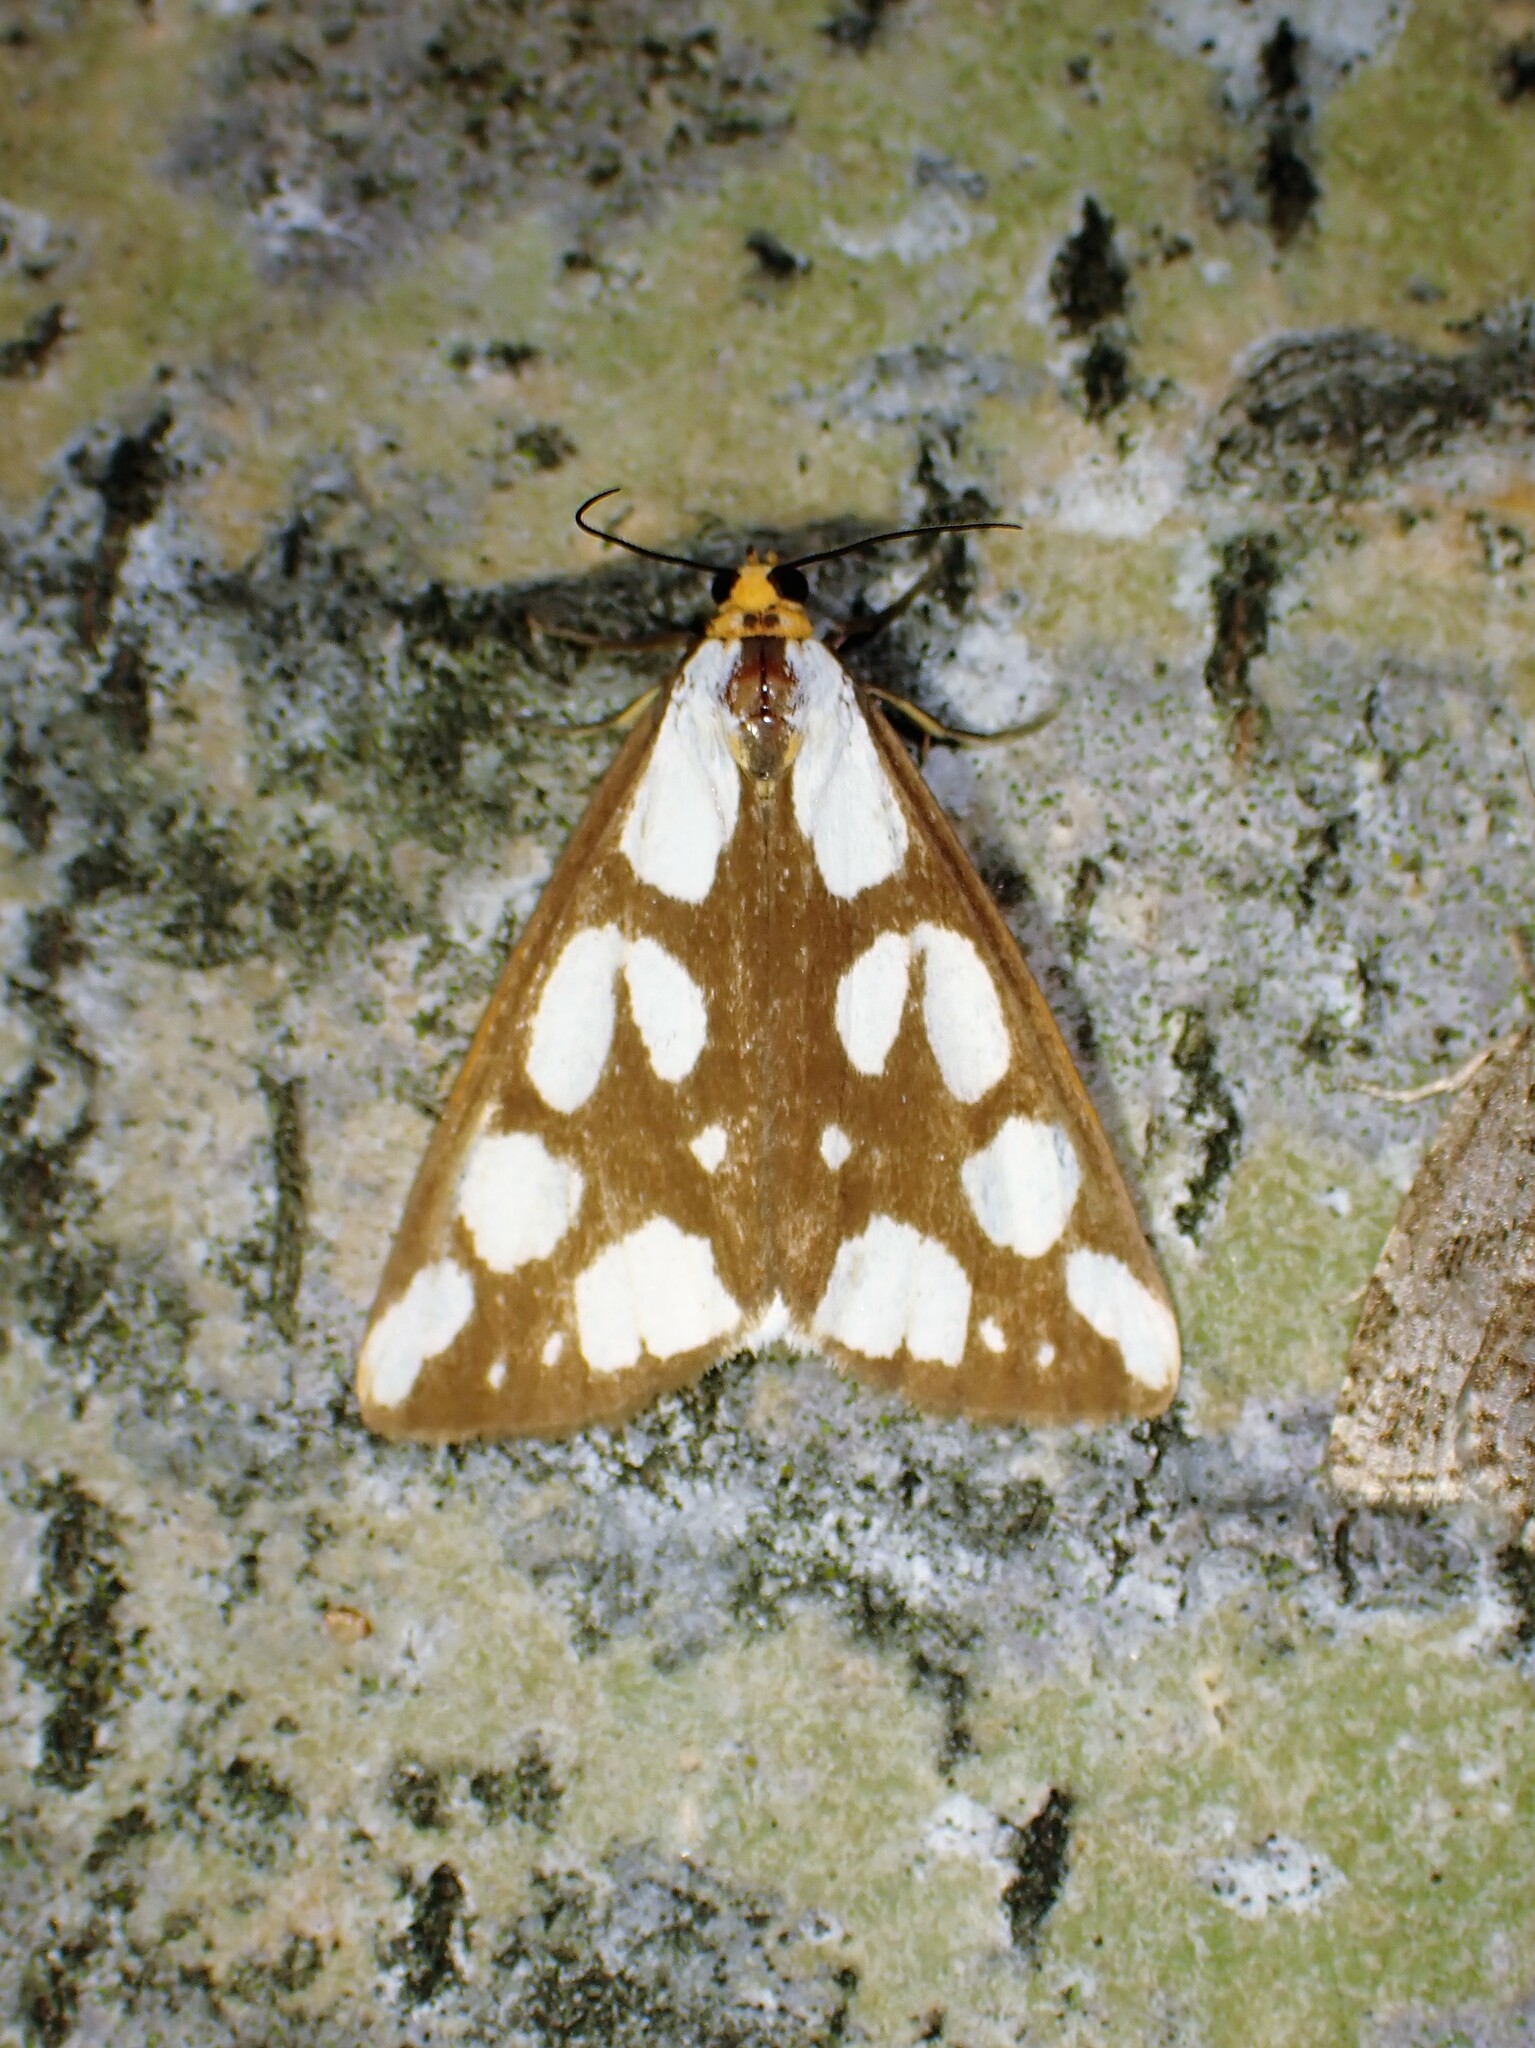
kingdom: Animalia
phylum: Arthropoda
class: Insecta
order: Lepidoptera
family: Erebidae
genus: Haploa
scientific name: Haploa confusa
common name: Confused haploa moth
